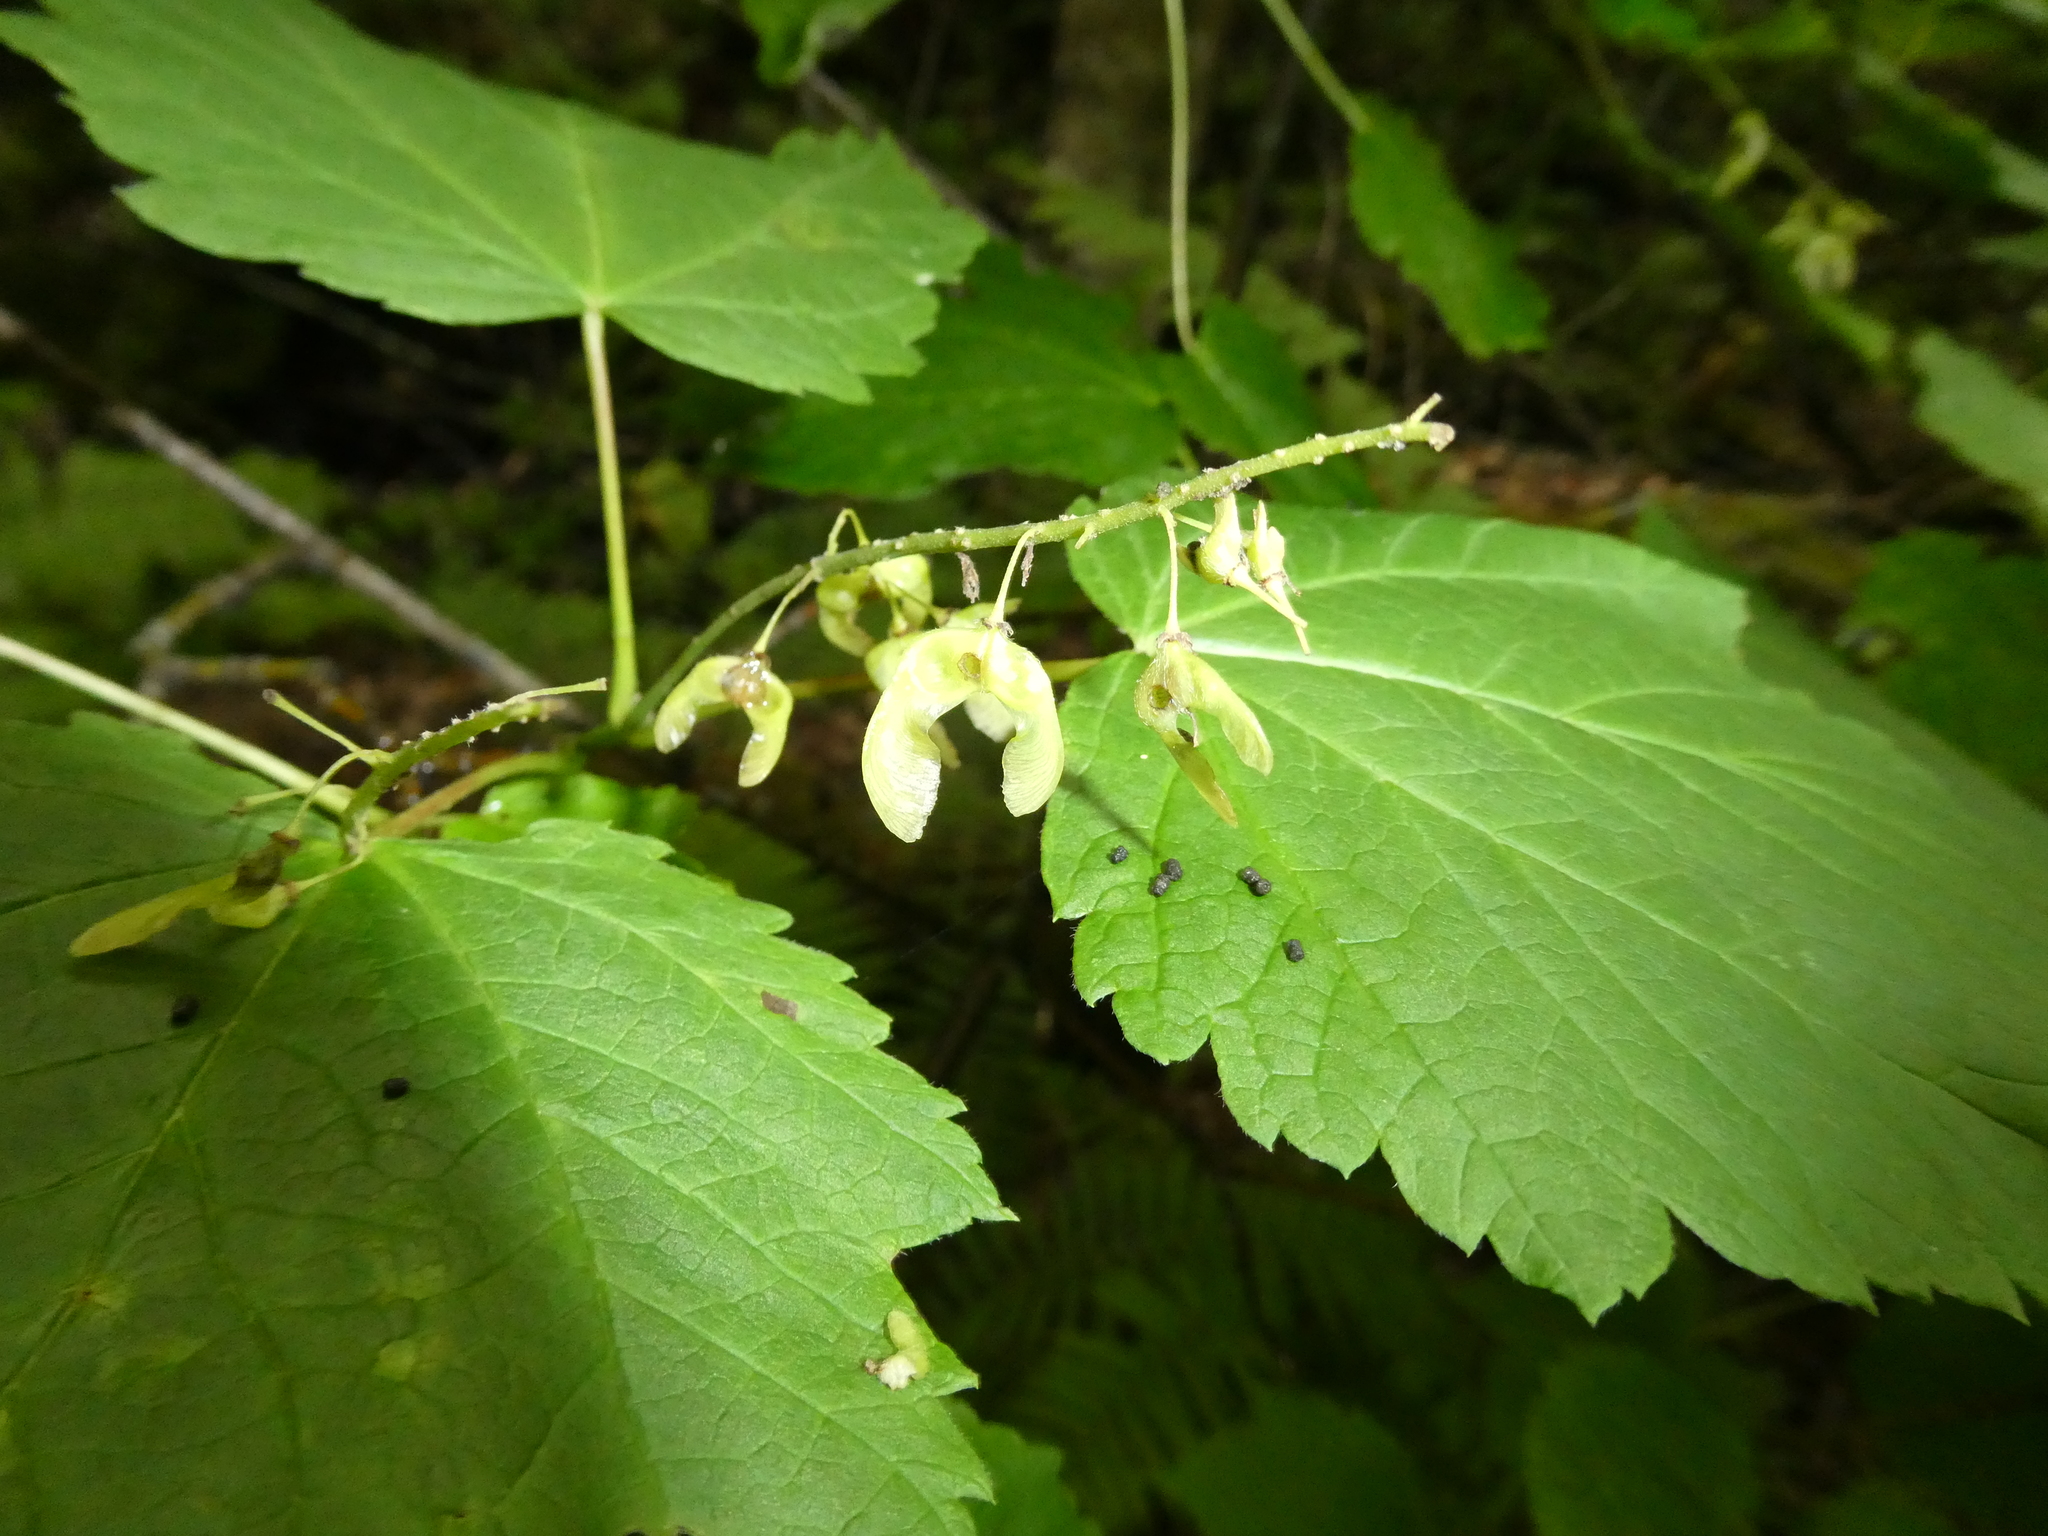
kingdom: Plantae
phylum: Tracheophyta
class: Magnoliopsida
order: Sapindales
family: Sapindaceae
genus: Acer
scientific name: Acer spicatum
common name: Mountain maple
